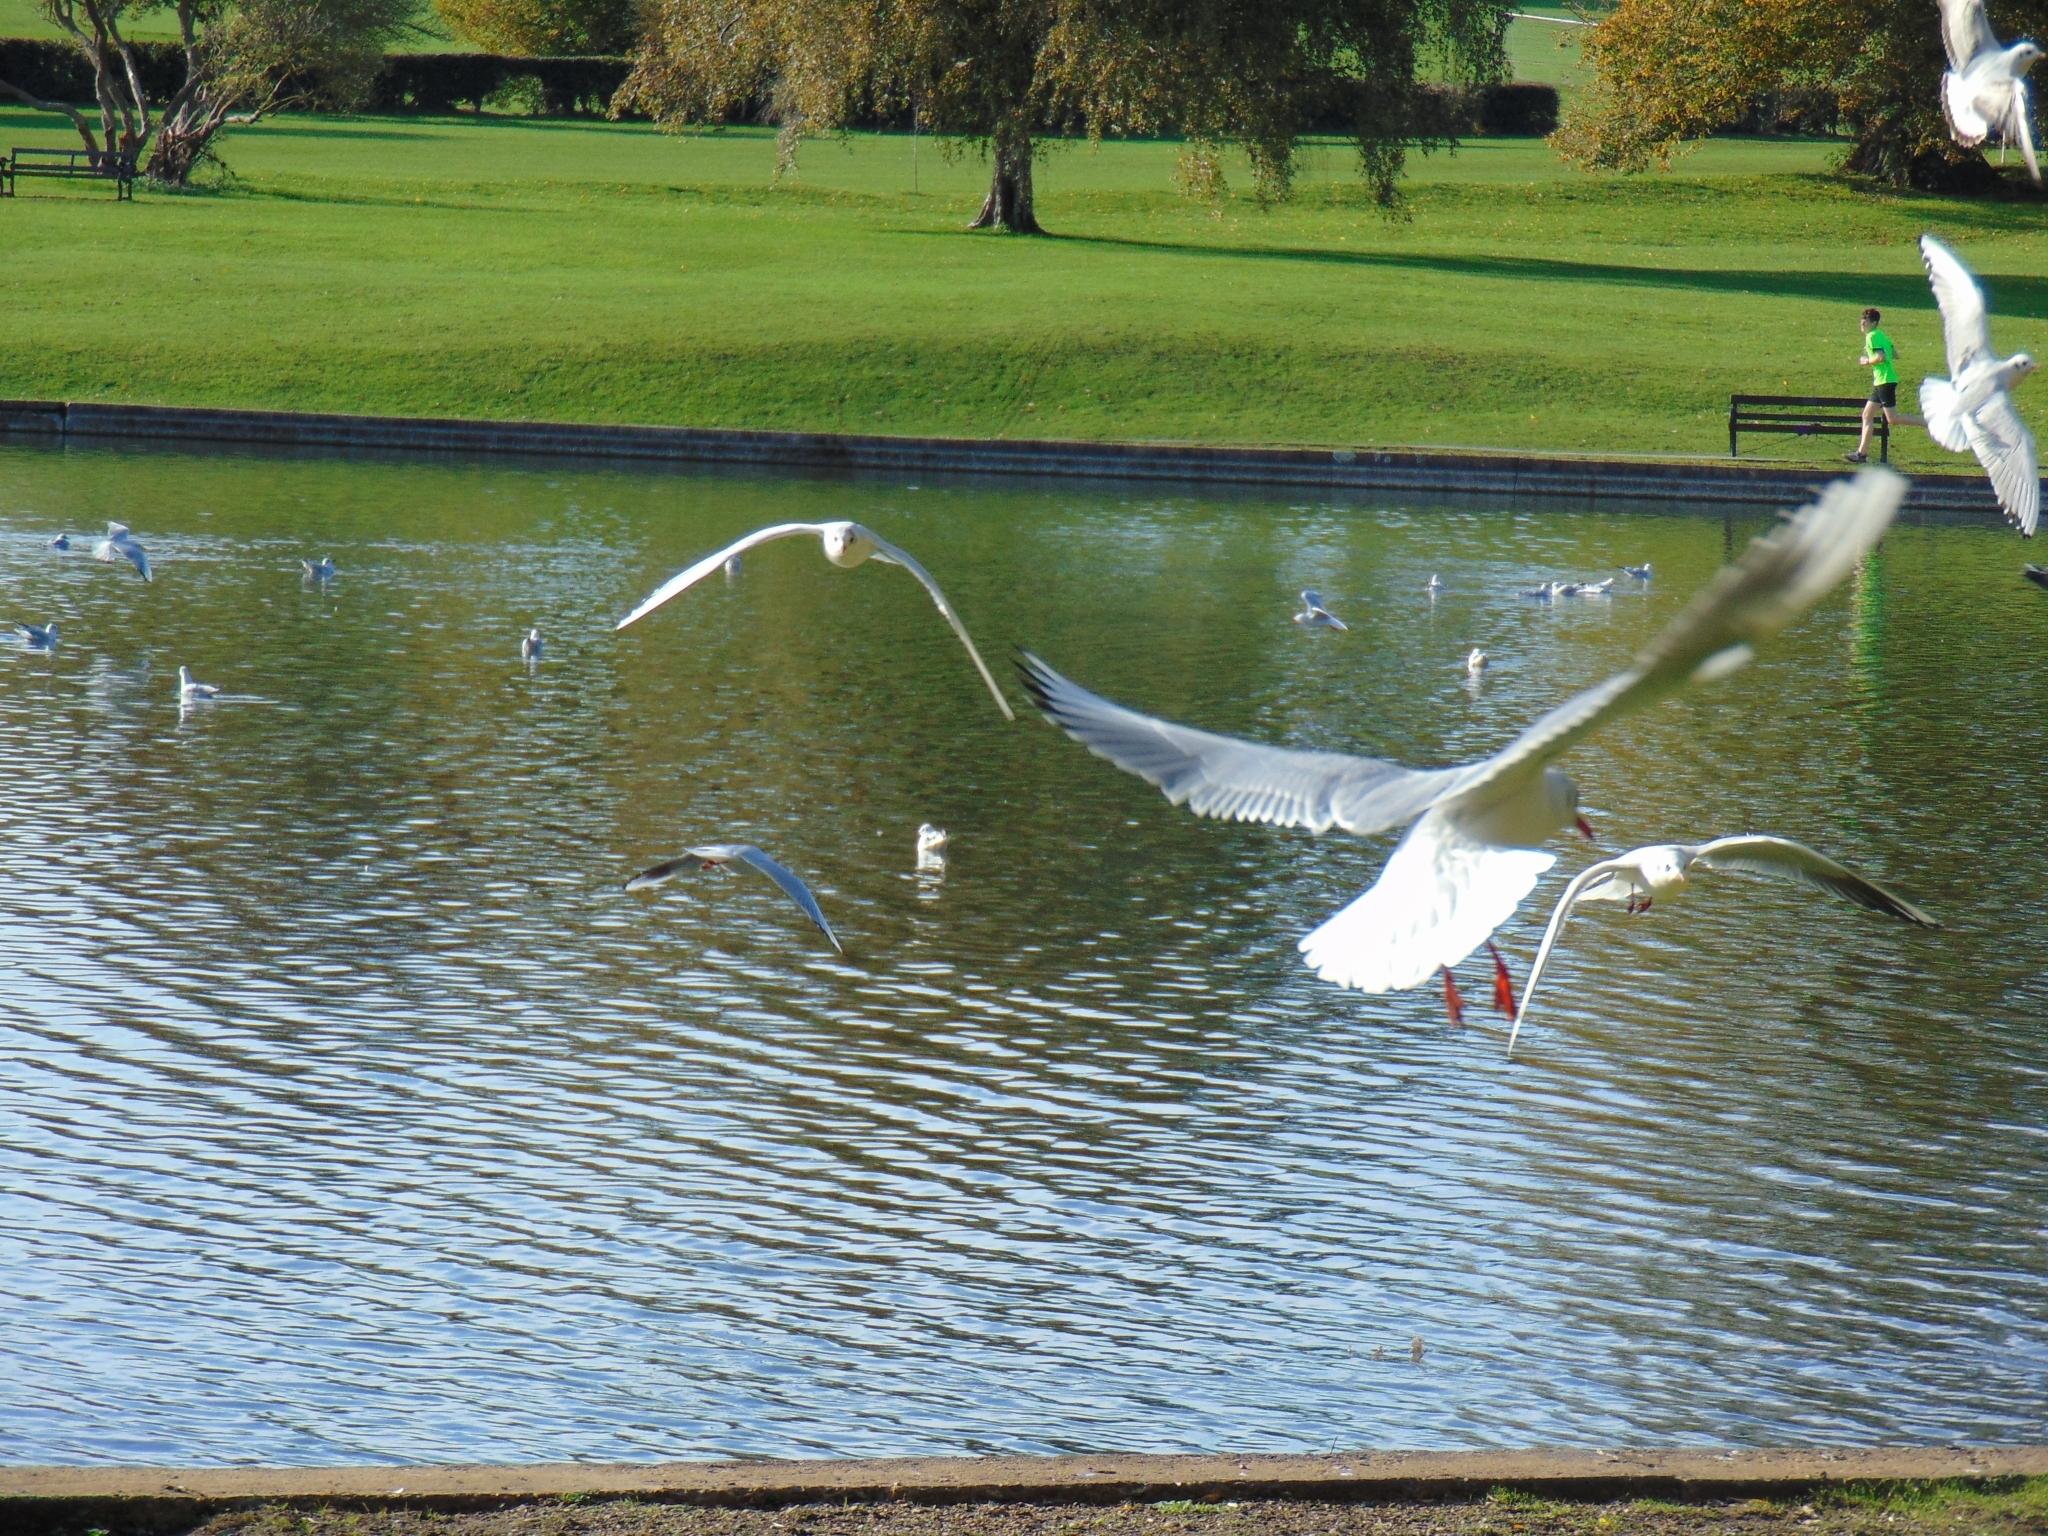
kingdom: Animalia
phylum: Chordata
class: Aves
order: Charadriiformes
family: Laridae
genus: Chroicocephalus
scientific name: Chroicocephalus ridibundus
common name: Black-headed gull
